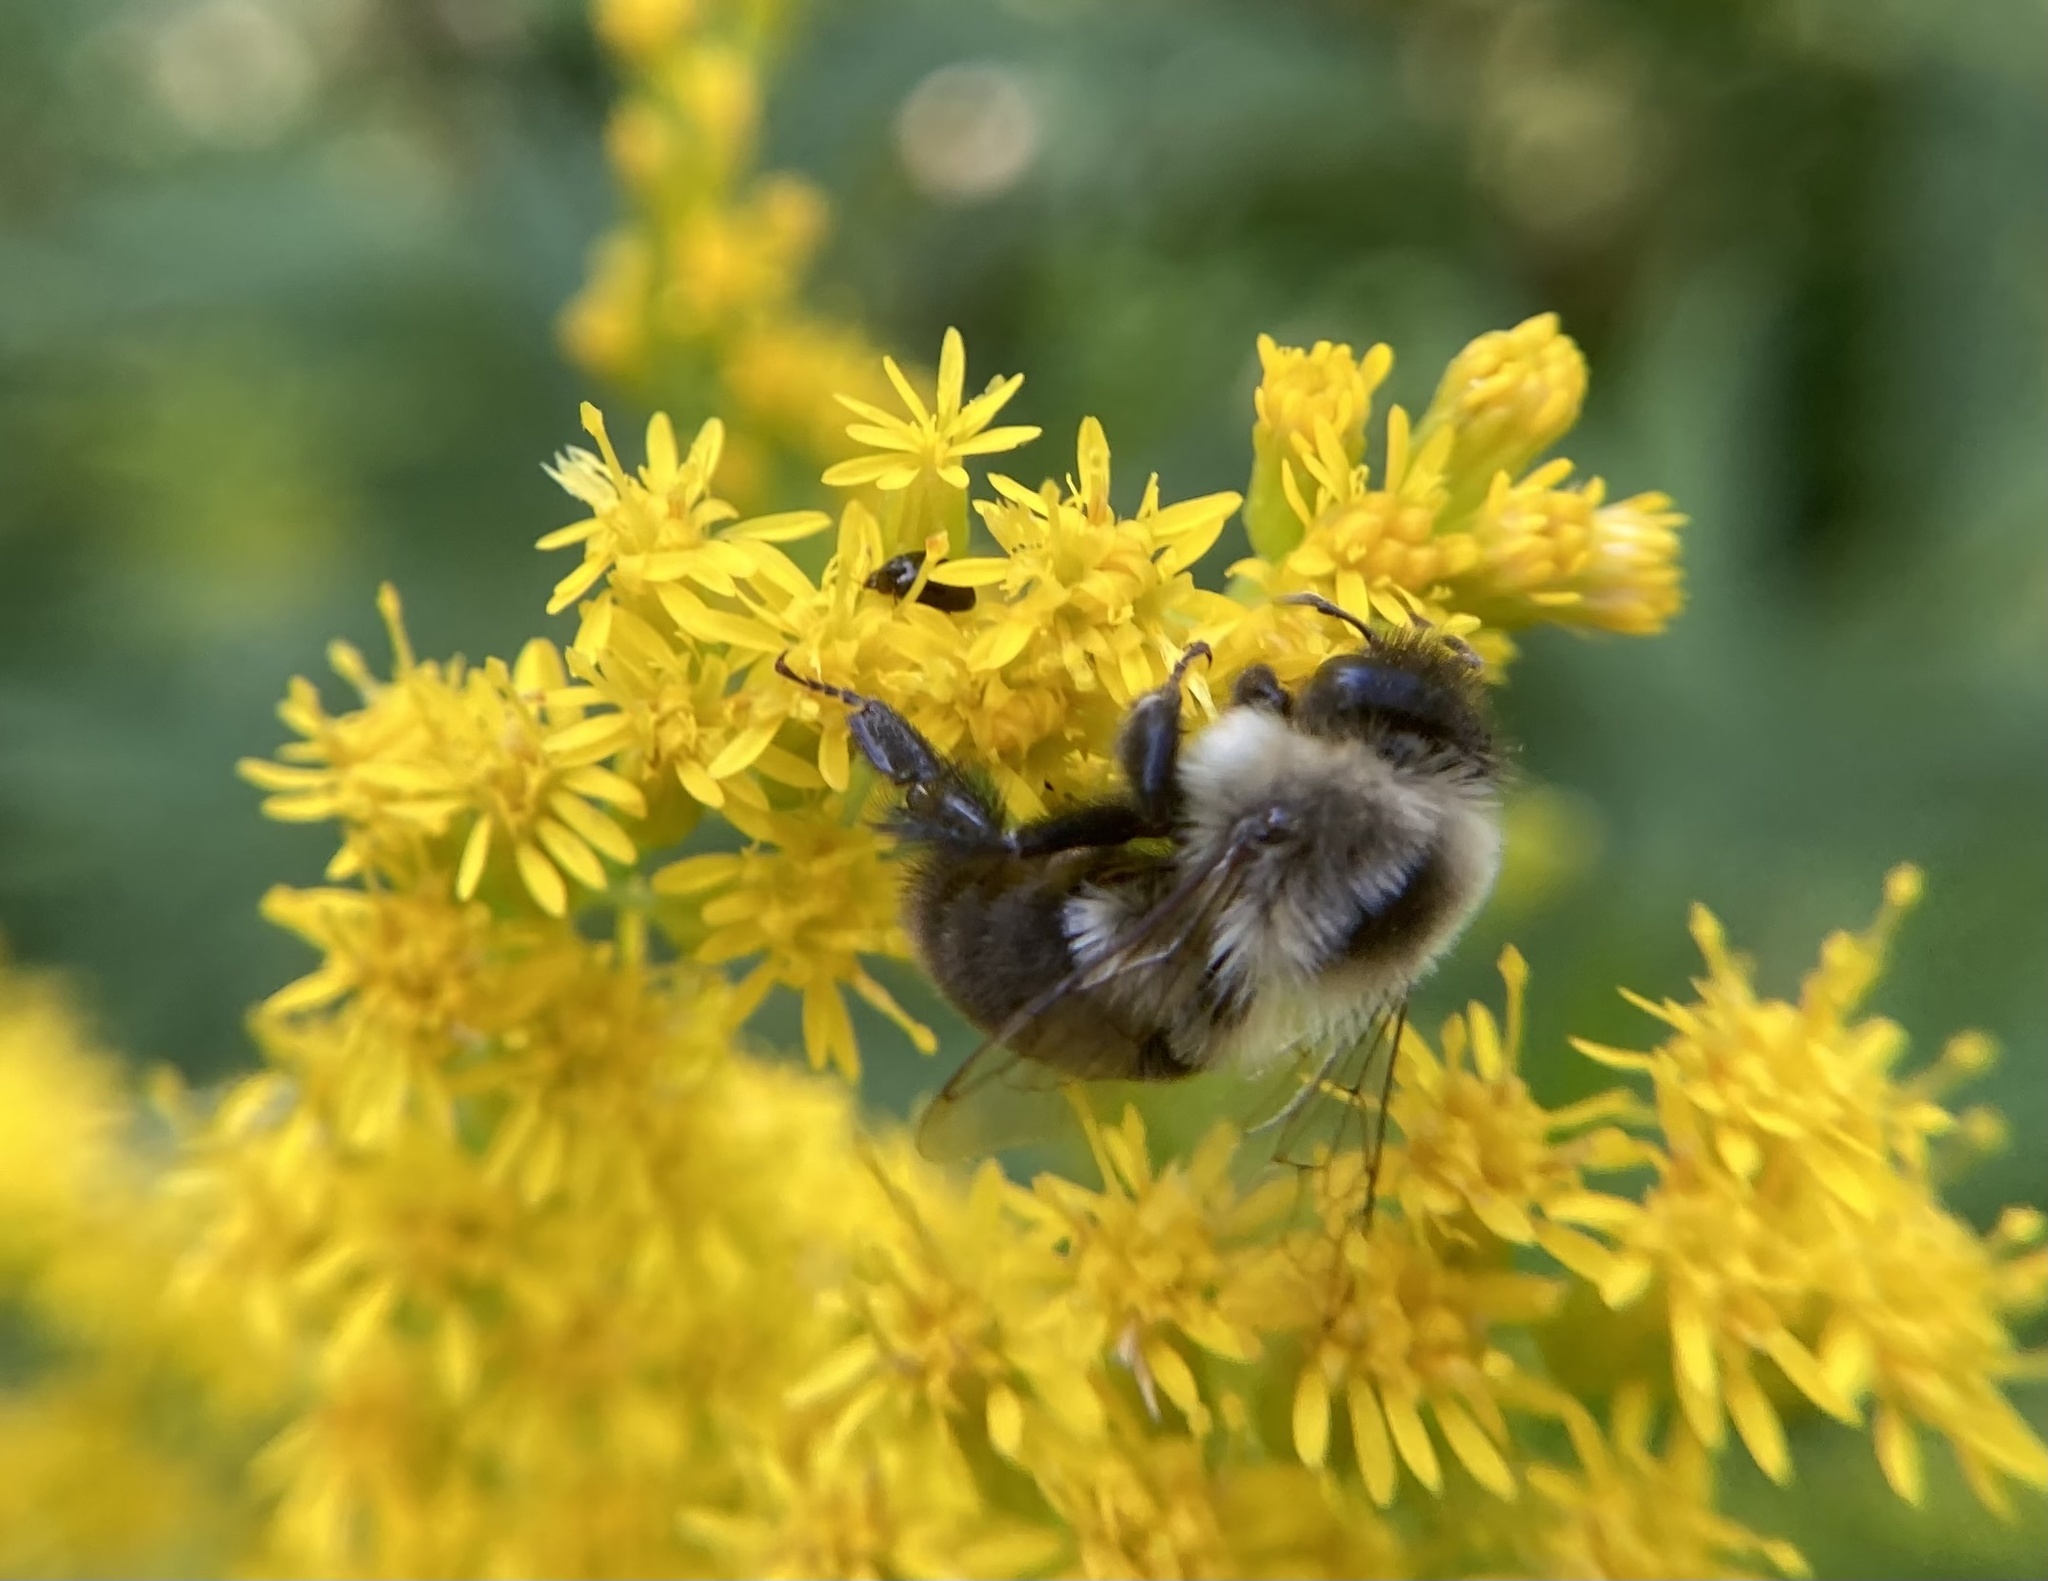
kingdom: Animalia
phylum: Arthropoda
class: Insecta
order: Hymenoptera
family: Apidae
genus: Bombus
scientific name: Bombus impatiens
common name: Common eastern bumble bee
